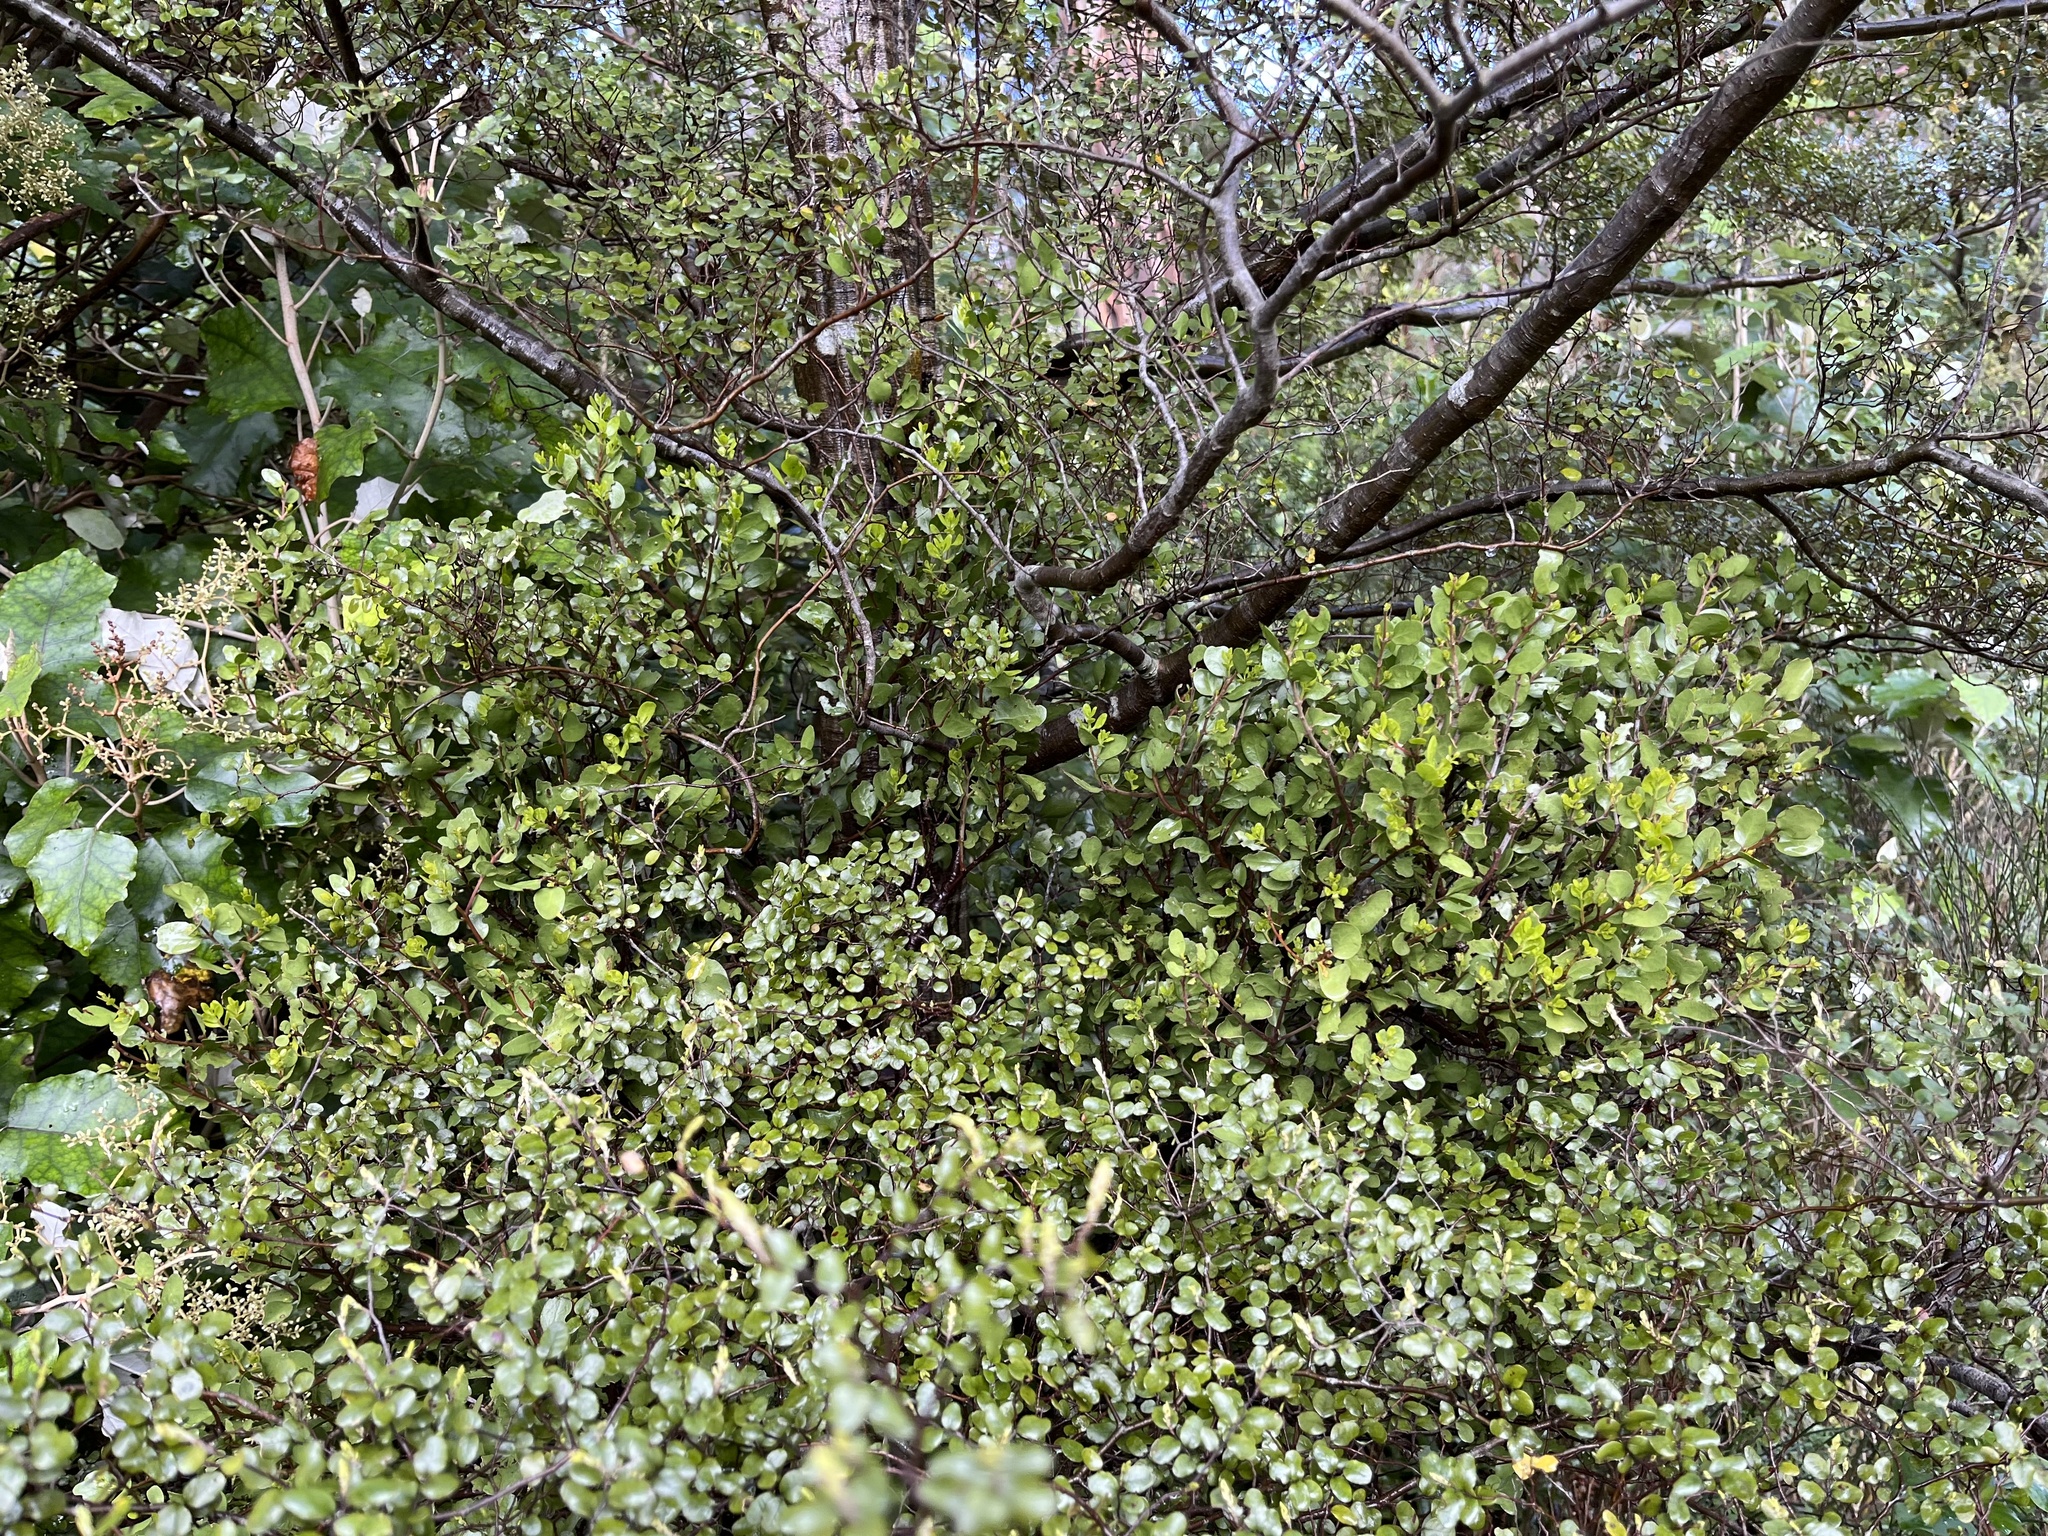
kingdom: Plantae
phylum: Tracheophyta
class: Magnoliopsida
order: Santalales
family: Loranthaceae
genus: Peraxilla
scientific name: Peraxilla tetrapetala
